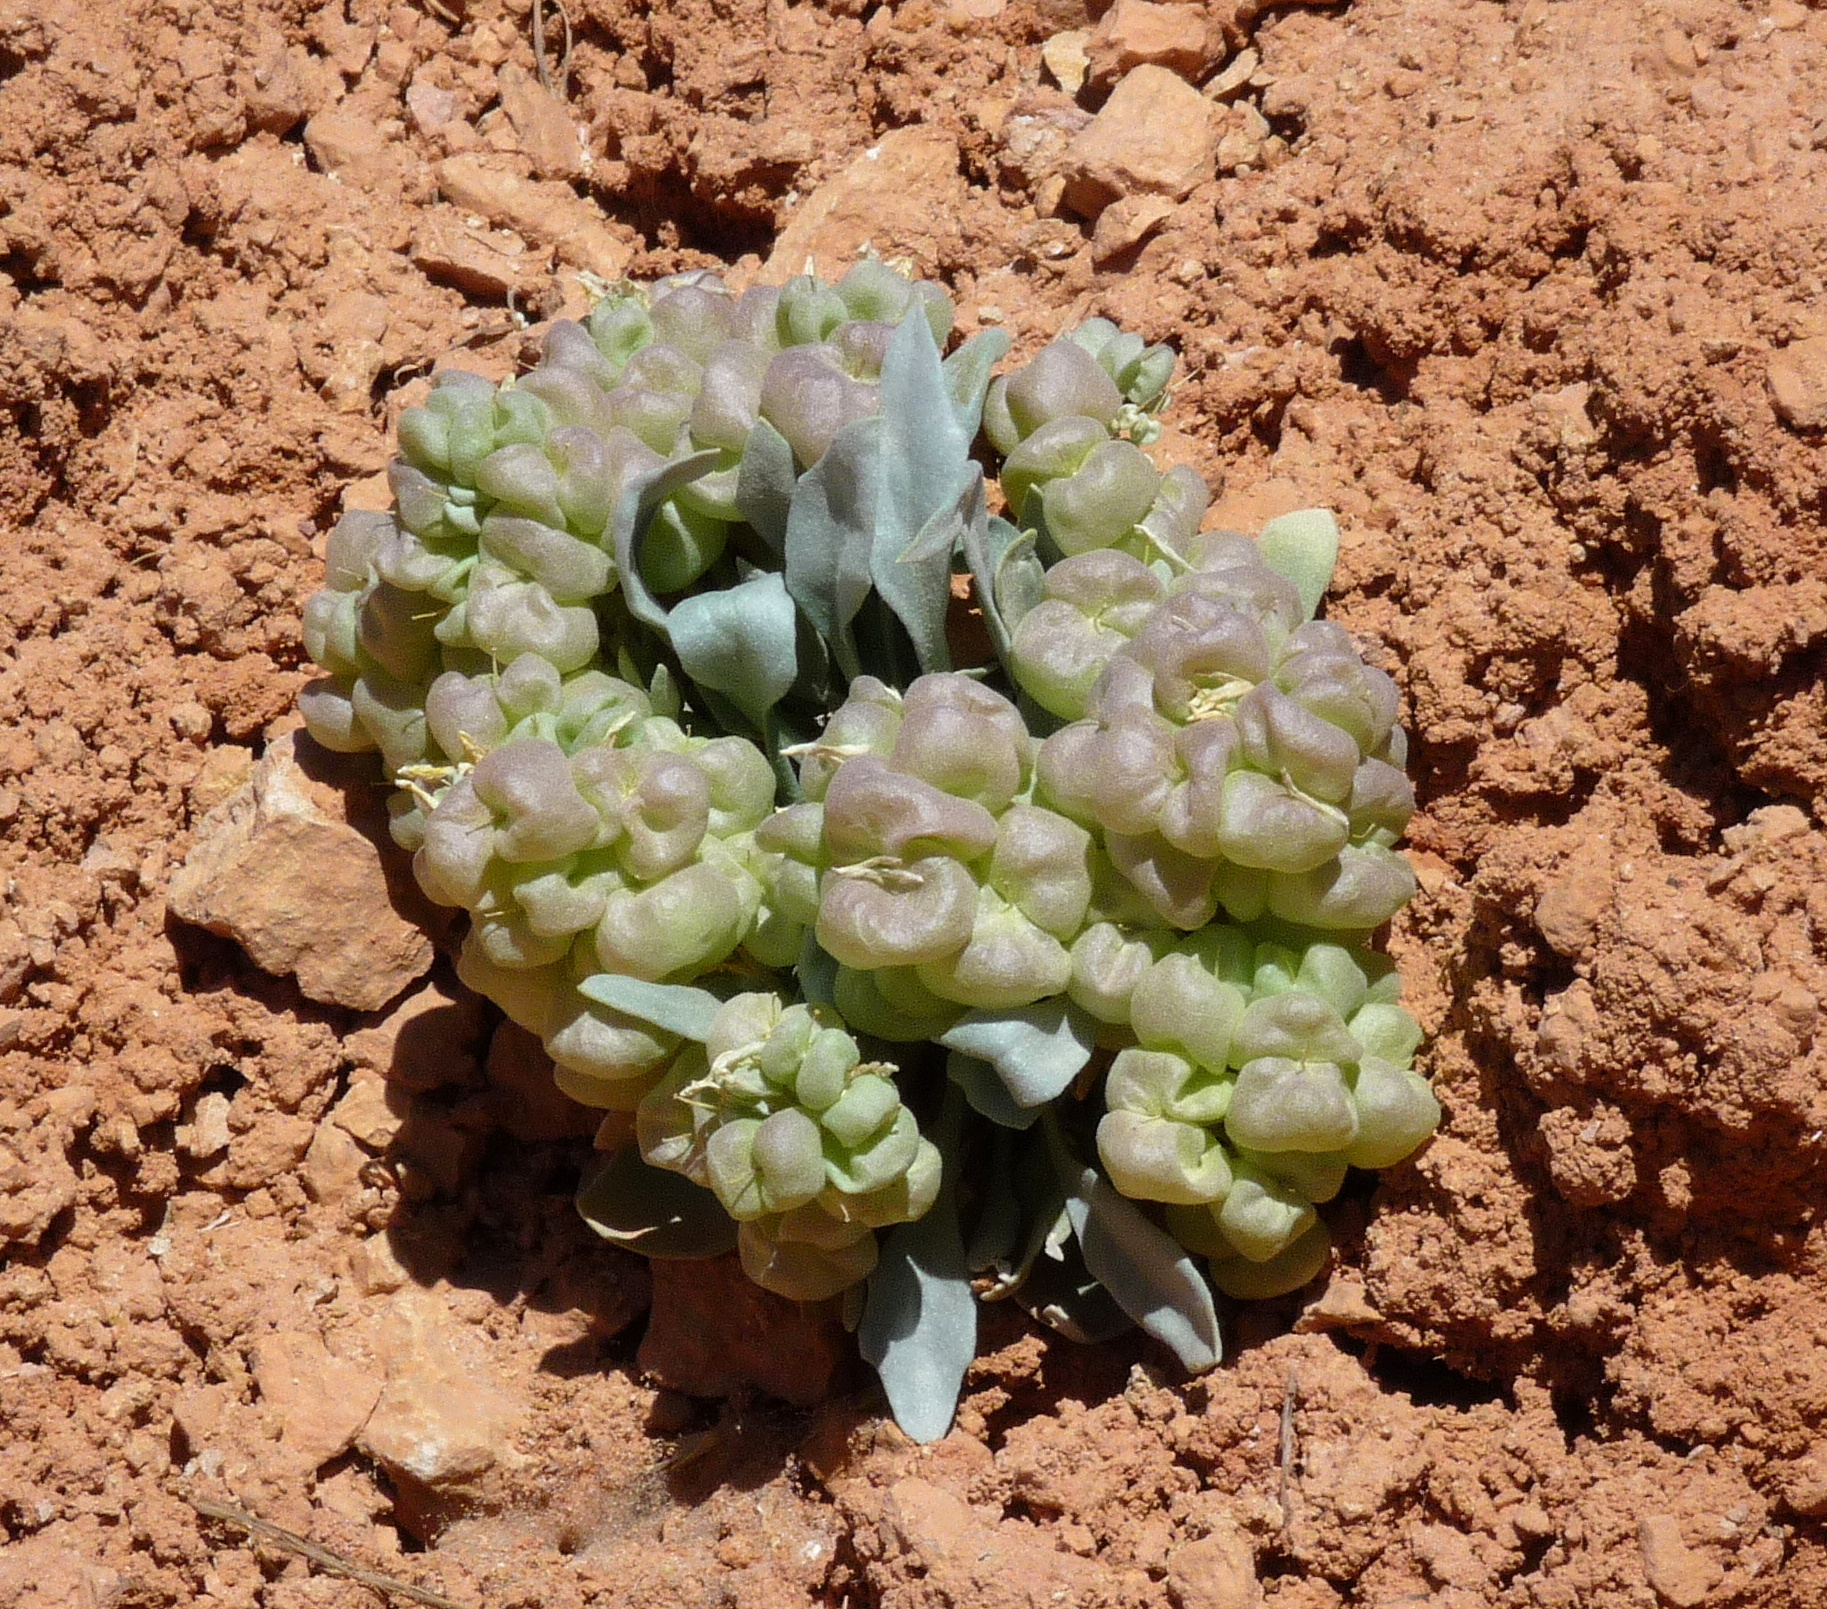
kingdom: Plantae
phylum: Tracheophyta
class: Magnoliopsida
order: Brassicales
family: Brassicaceae
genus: Physaria
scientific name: Physaria chambersii
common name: Chamber's twinpod
